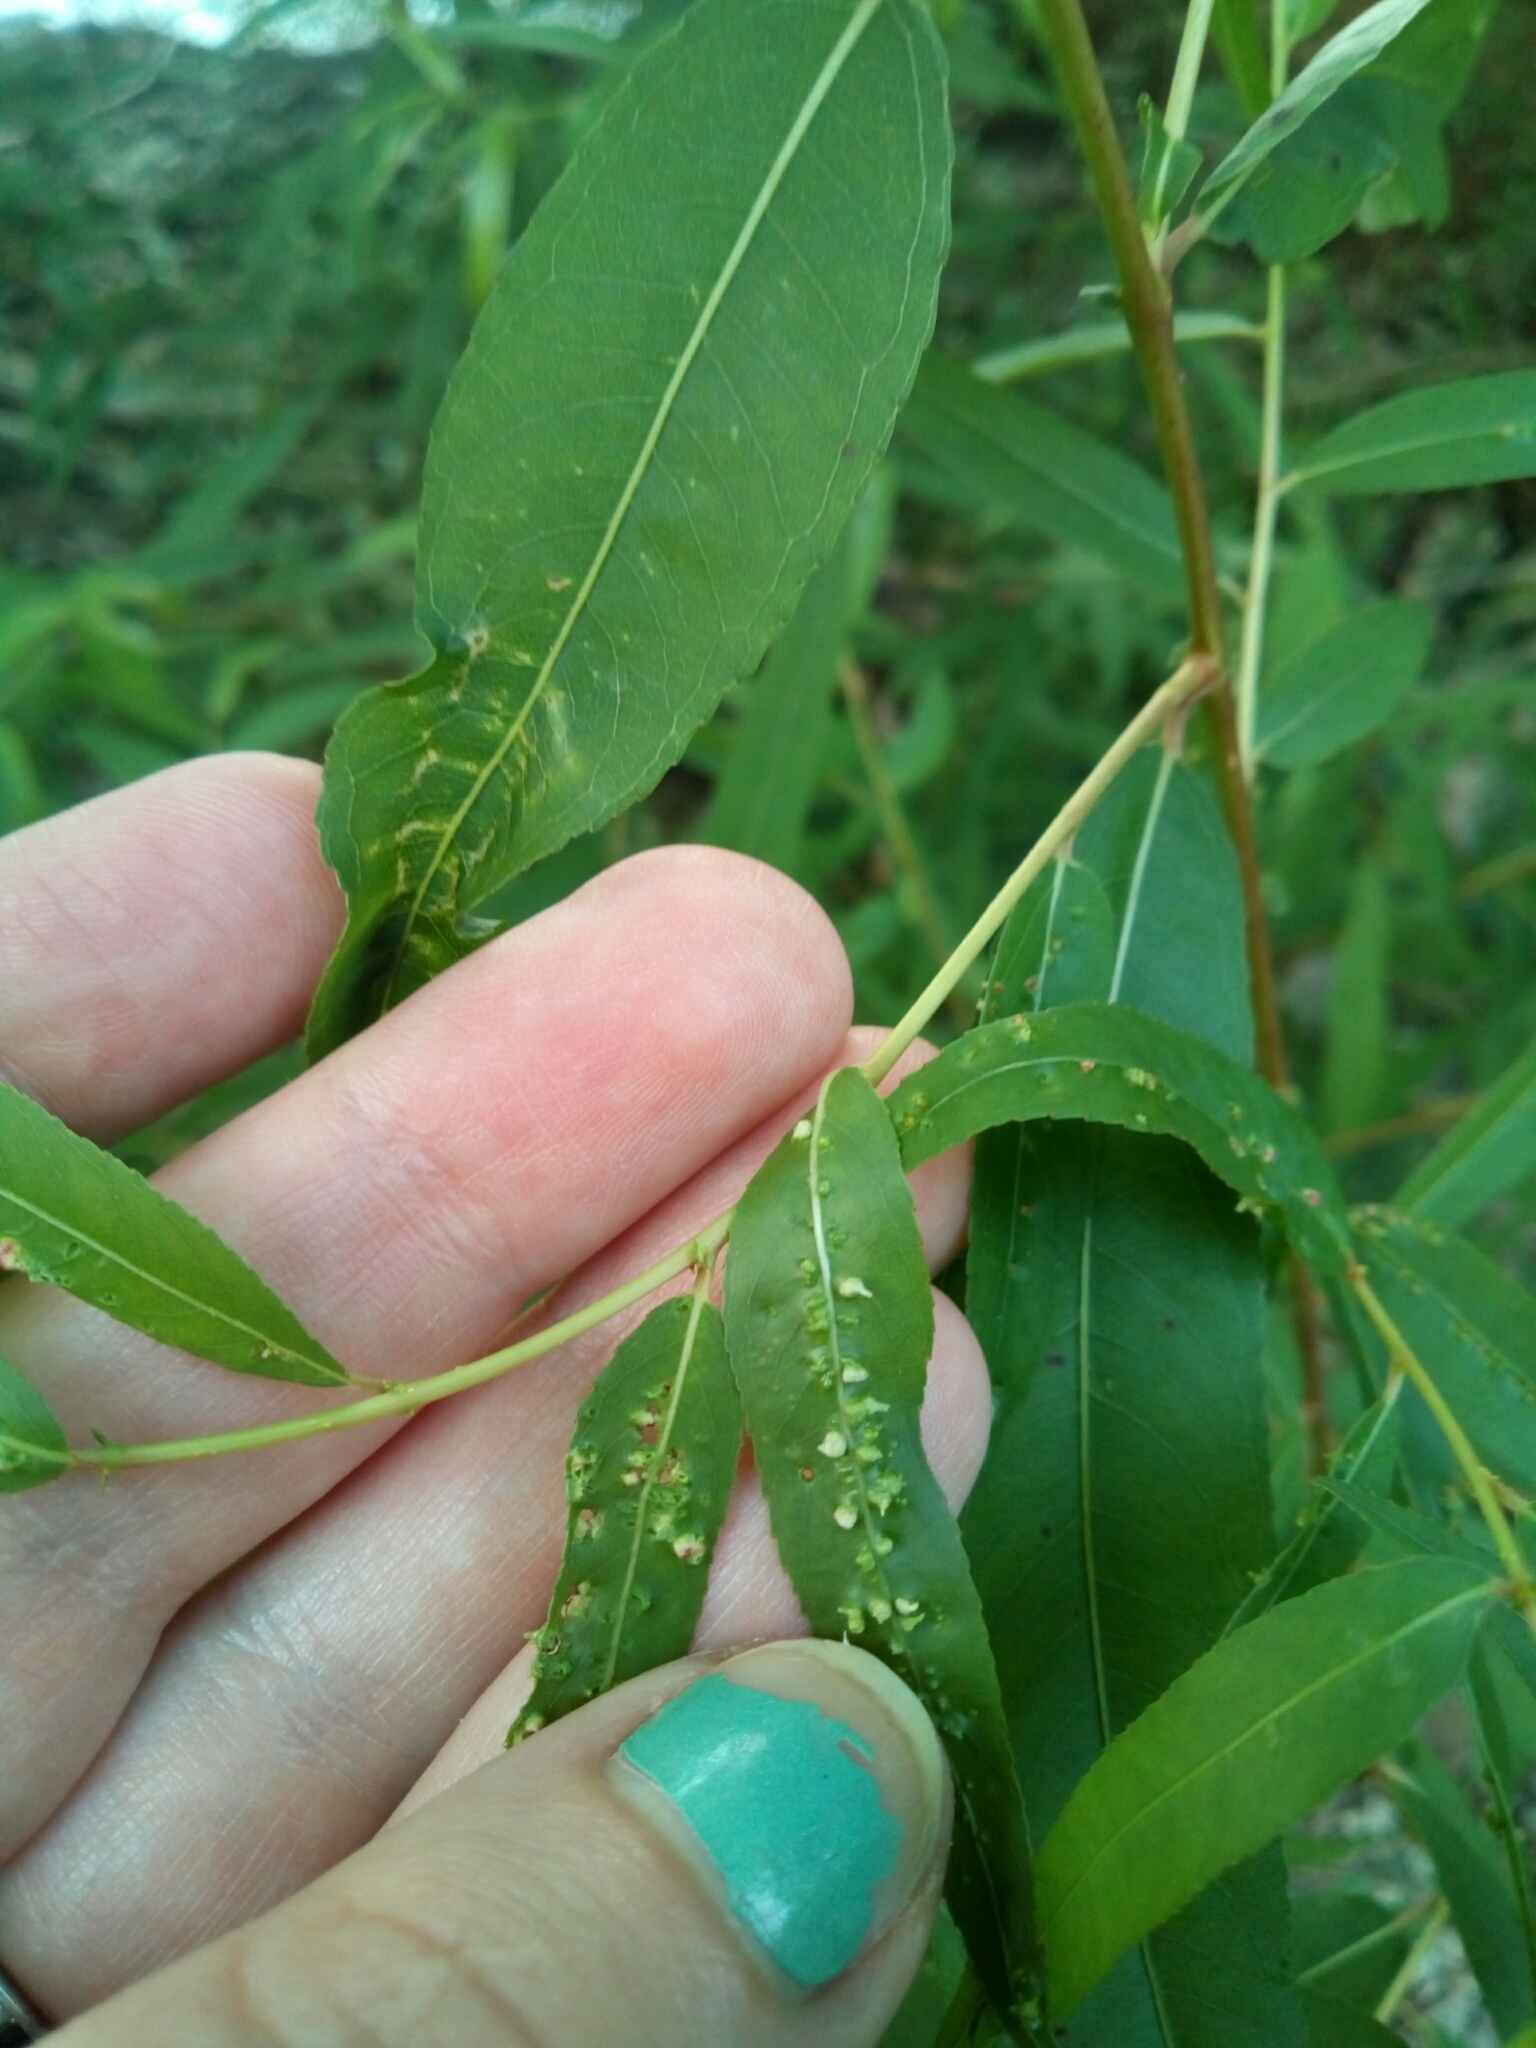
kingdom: Animalia
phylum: Arthropoda
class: Arachnida
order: Trombidiformes
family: Eriophyidae
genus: Aculus
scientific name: Aculus tetanothrix
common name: Willow bead gall mite
